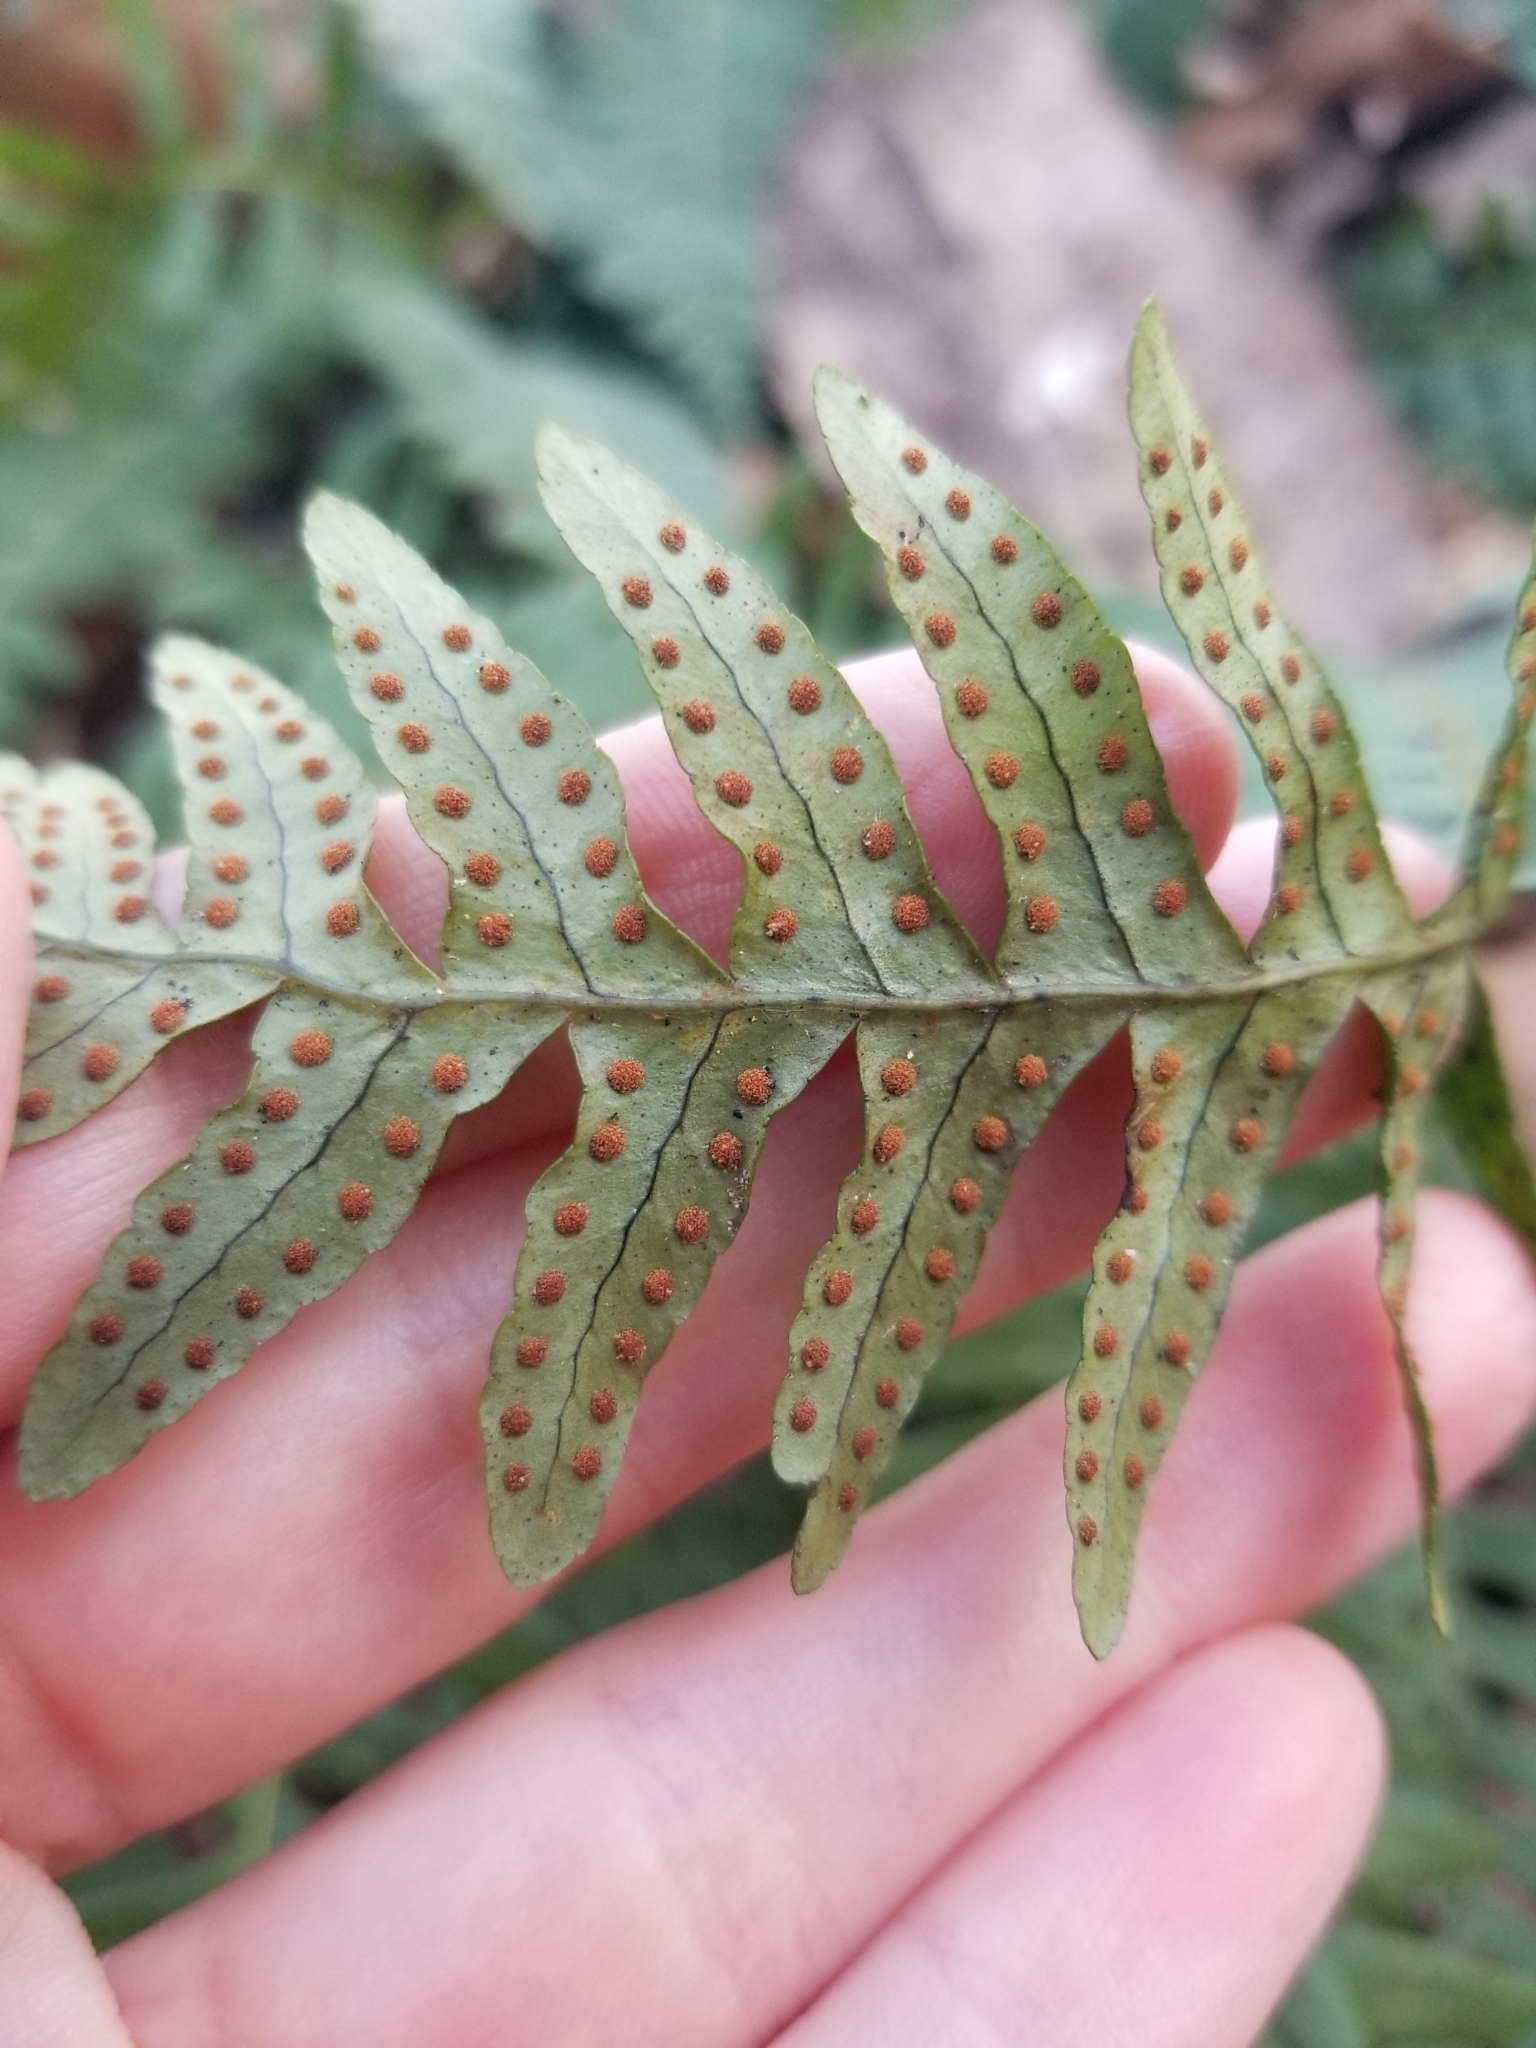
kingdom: Plantae
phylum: Tracheophyta
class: Polypodiopsida
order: Polypodiales
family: Polypodiaceae
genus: Polypodium
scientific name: Polypodium virginianum
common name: American wall fern
